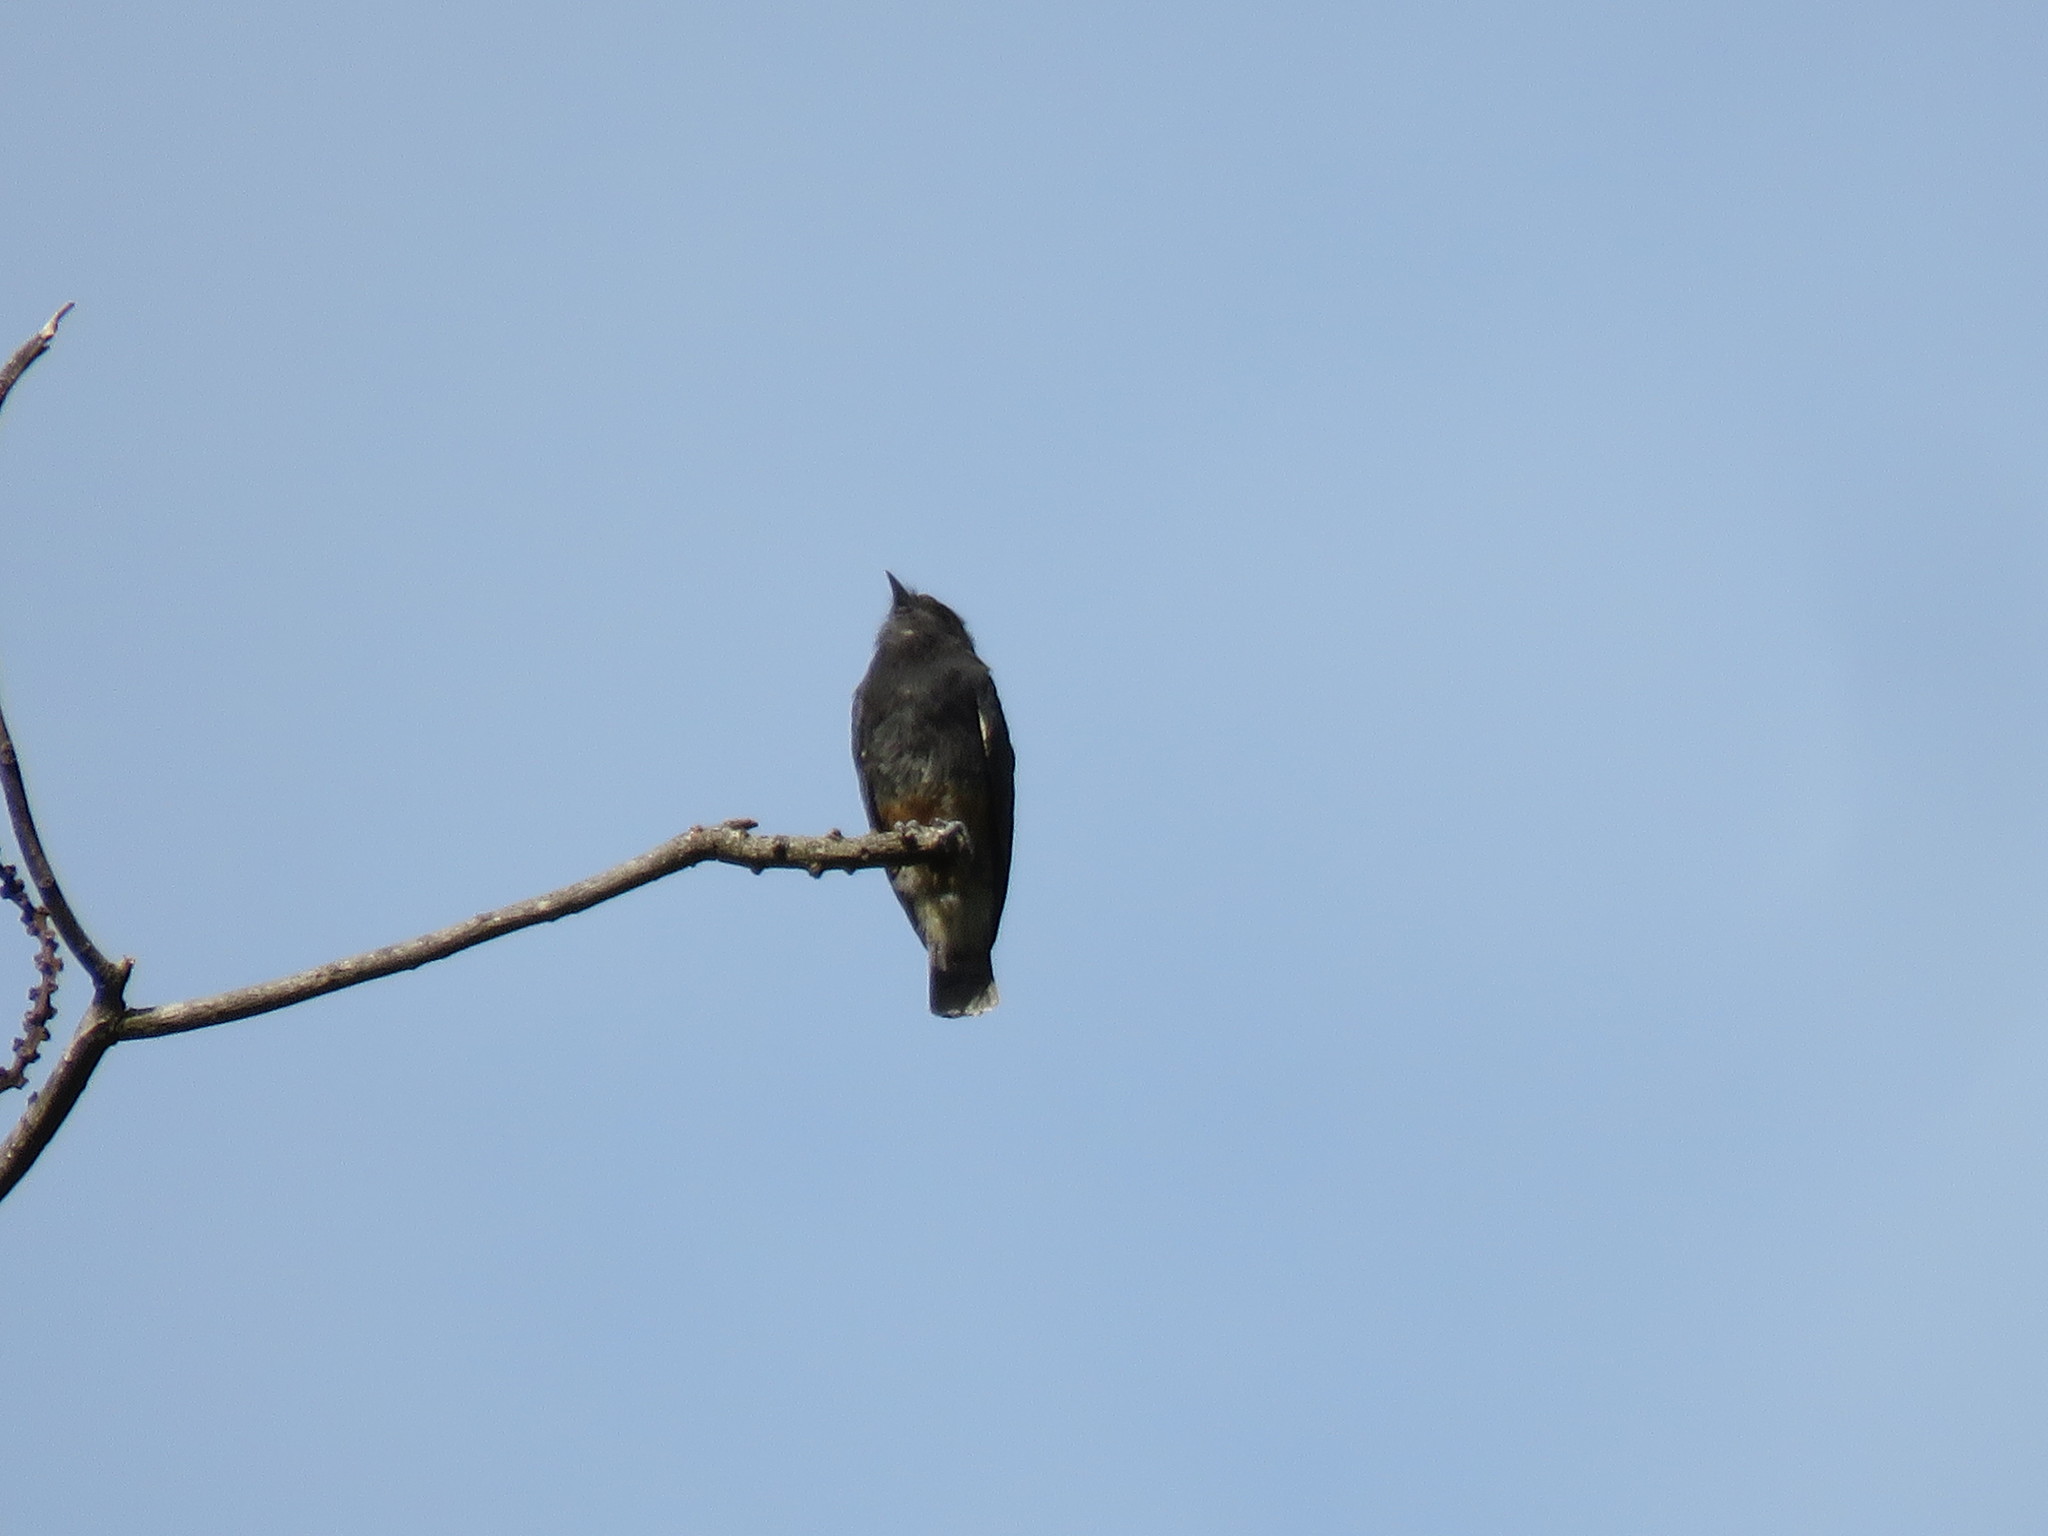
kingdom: Animalia
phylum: Chordata
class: Aves
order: Piciformes
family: Bucconidae
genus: Chelidoptera
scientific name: Chelidoptera tenebrosa
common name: Swallow-winged puffbird
